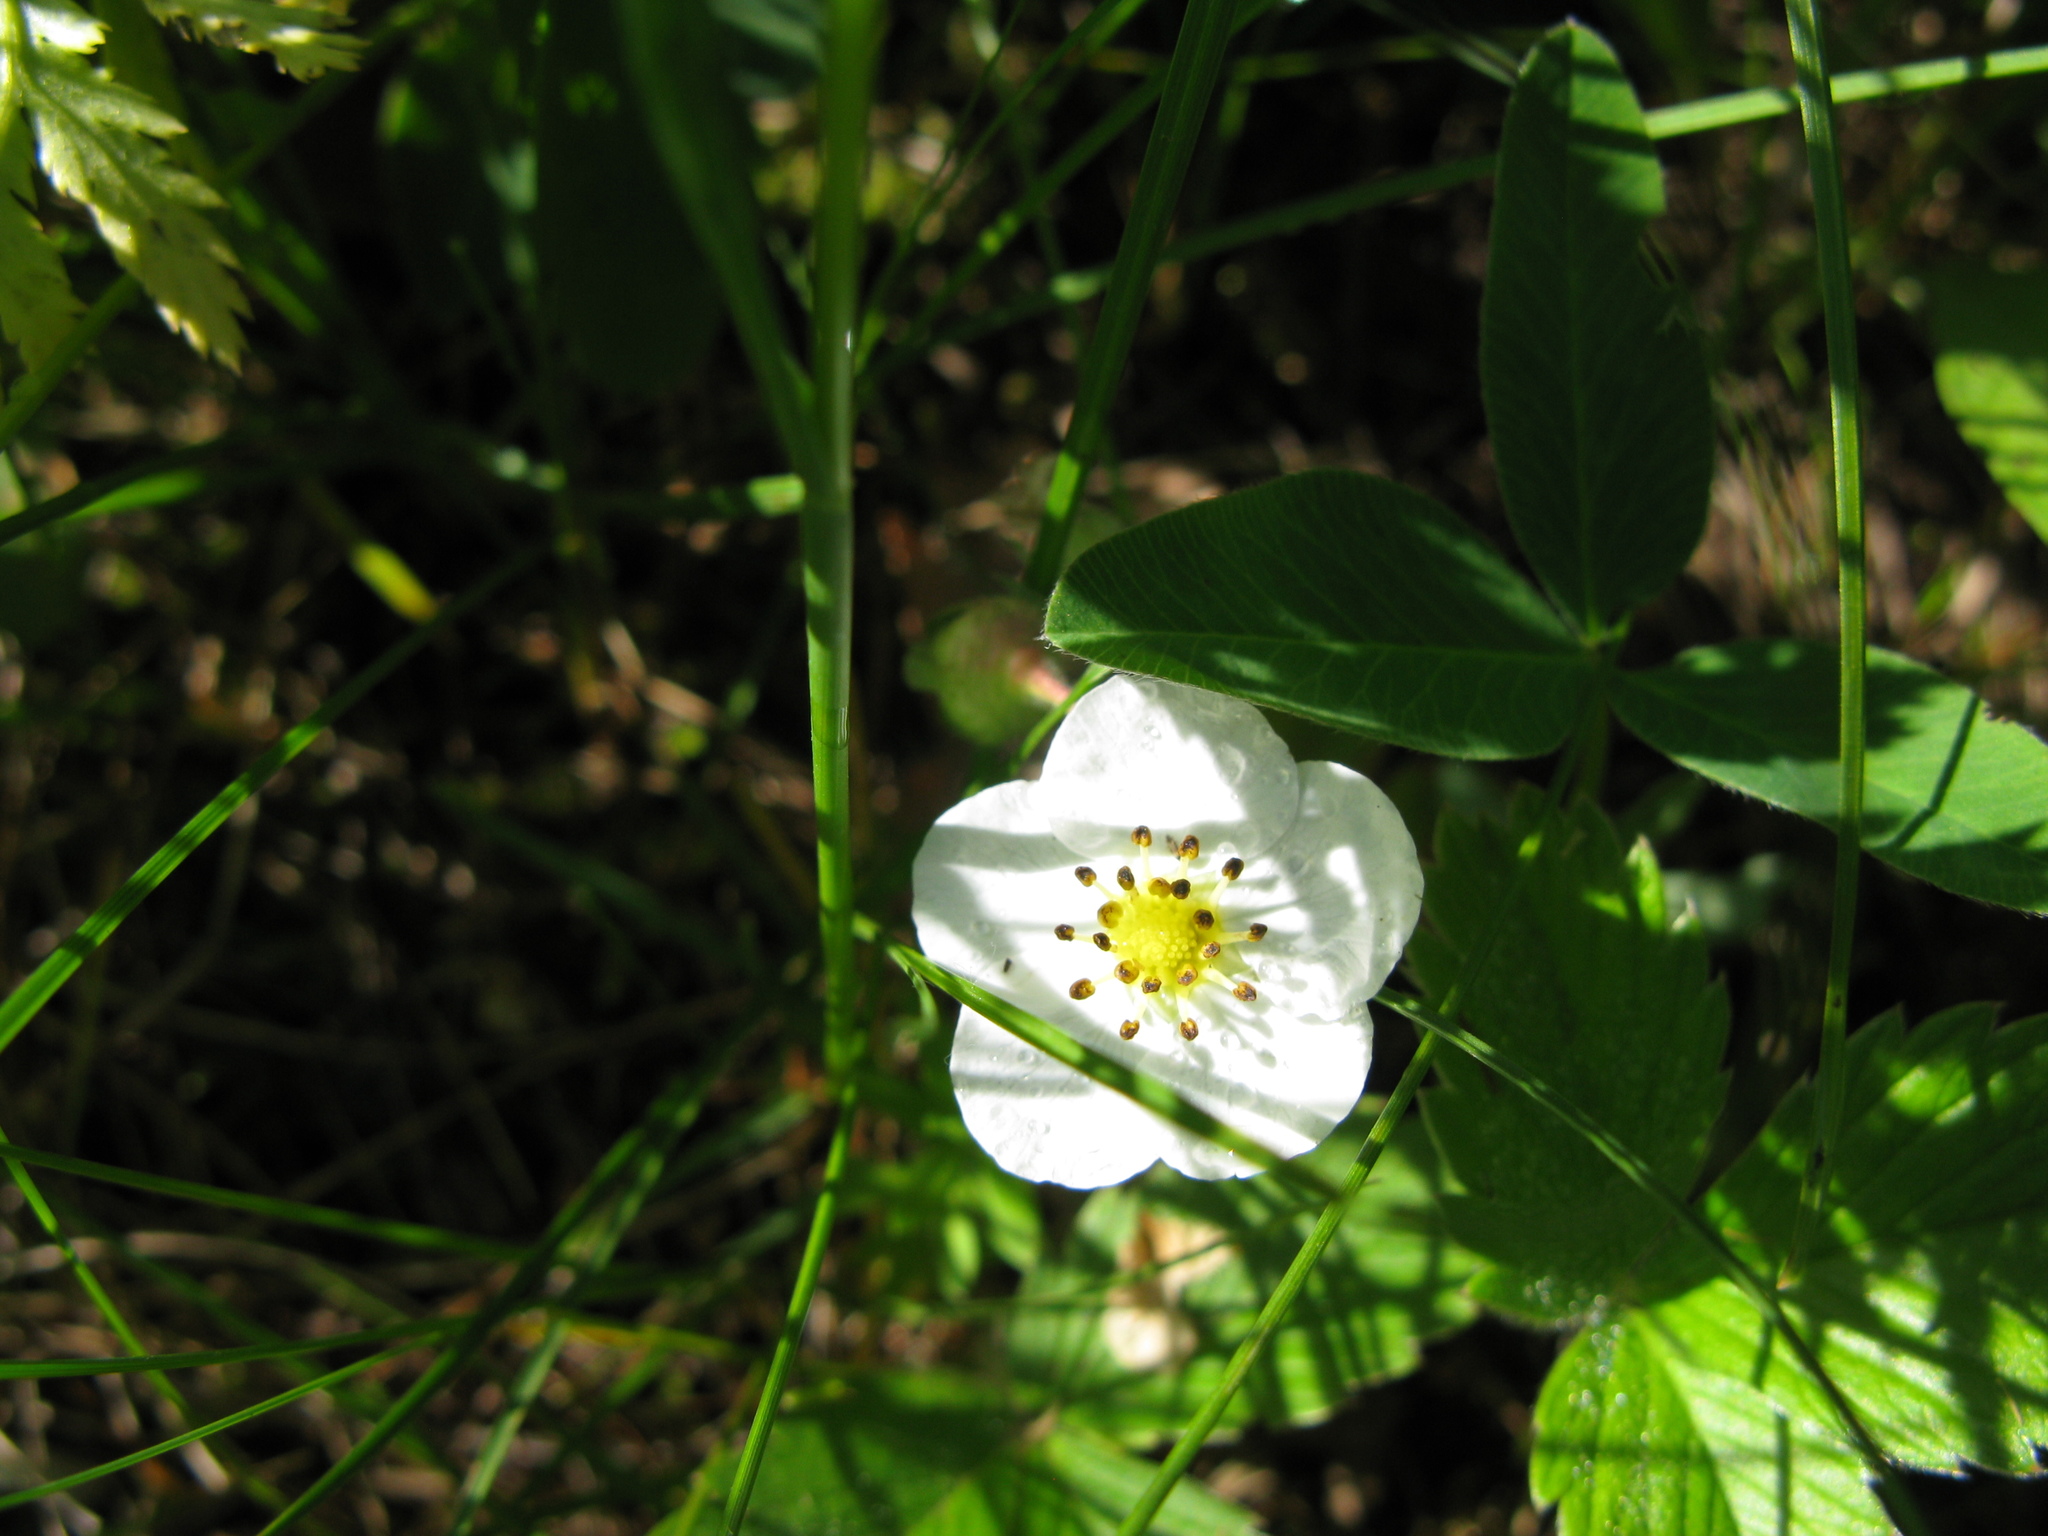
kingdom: Plantae
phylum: Tracheophyta
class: Magnoliopsida
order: Rosales
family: Rosaceae
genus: Fragaria
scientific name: Fragaria viridis
